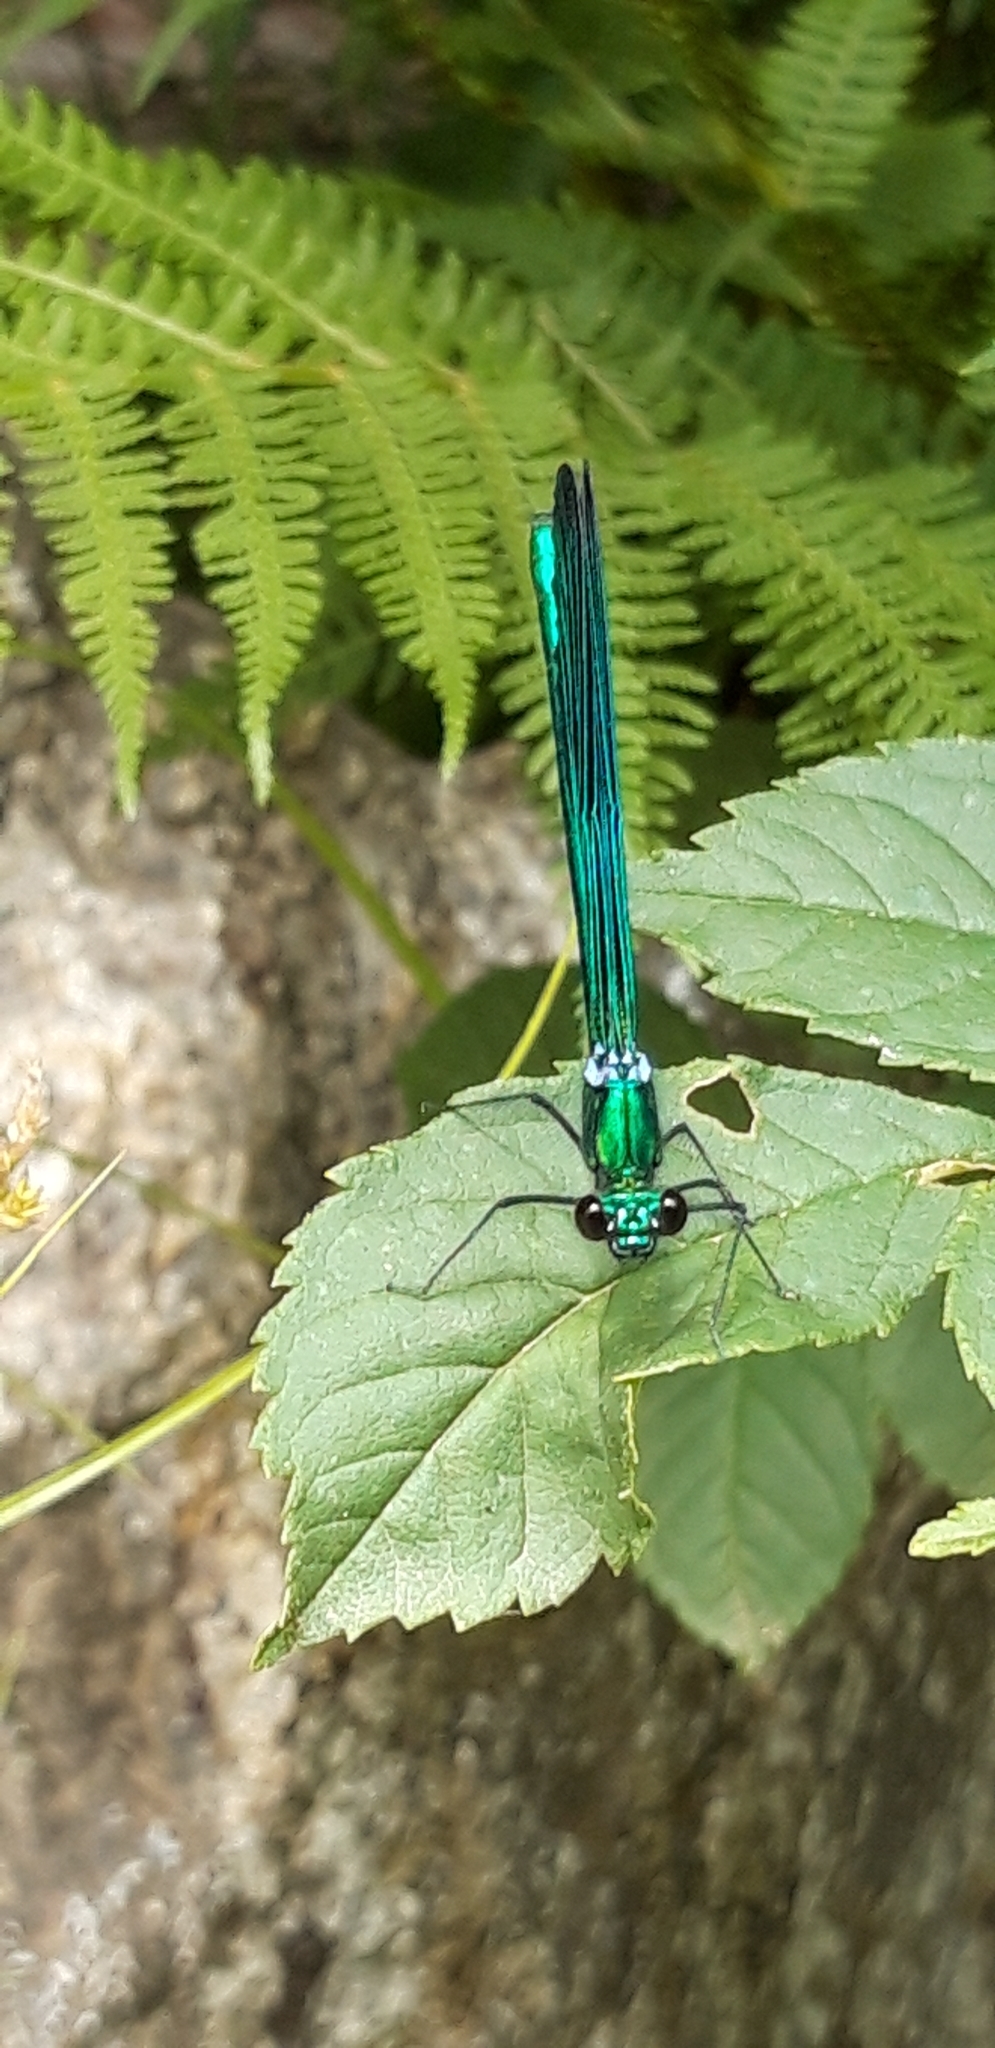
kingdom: Animalia
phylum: Arthropoda
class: Insecta
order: Odonata
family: Calopterygidae
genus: Calopteryx
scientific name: Calopteryx virgo
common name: Beautiful demoiselle
